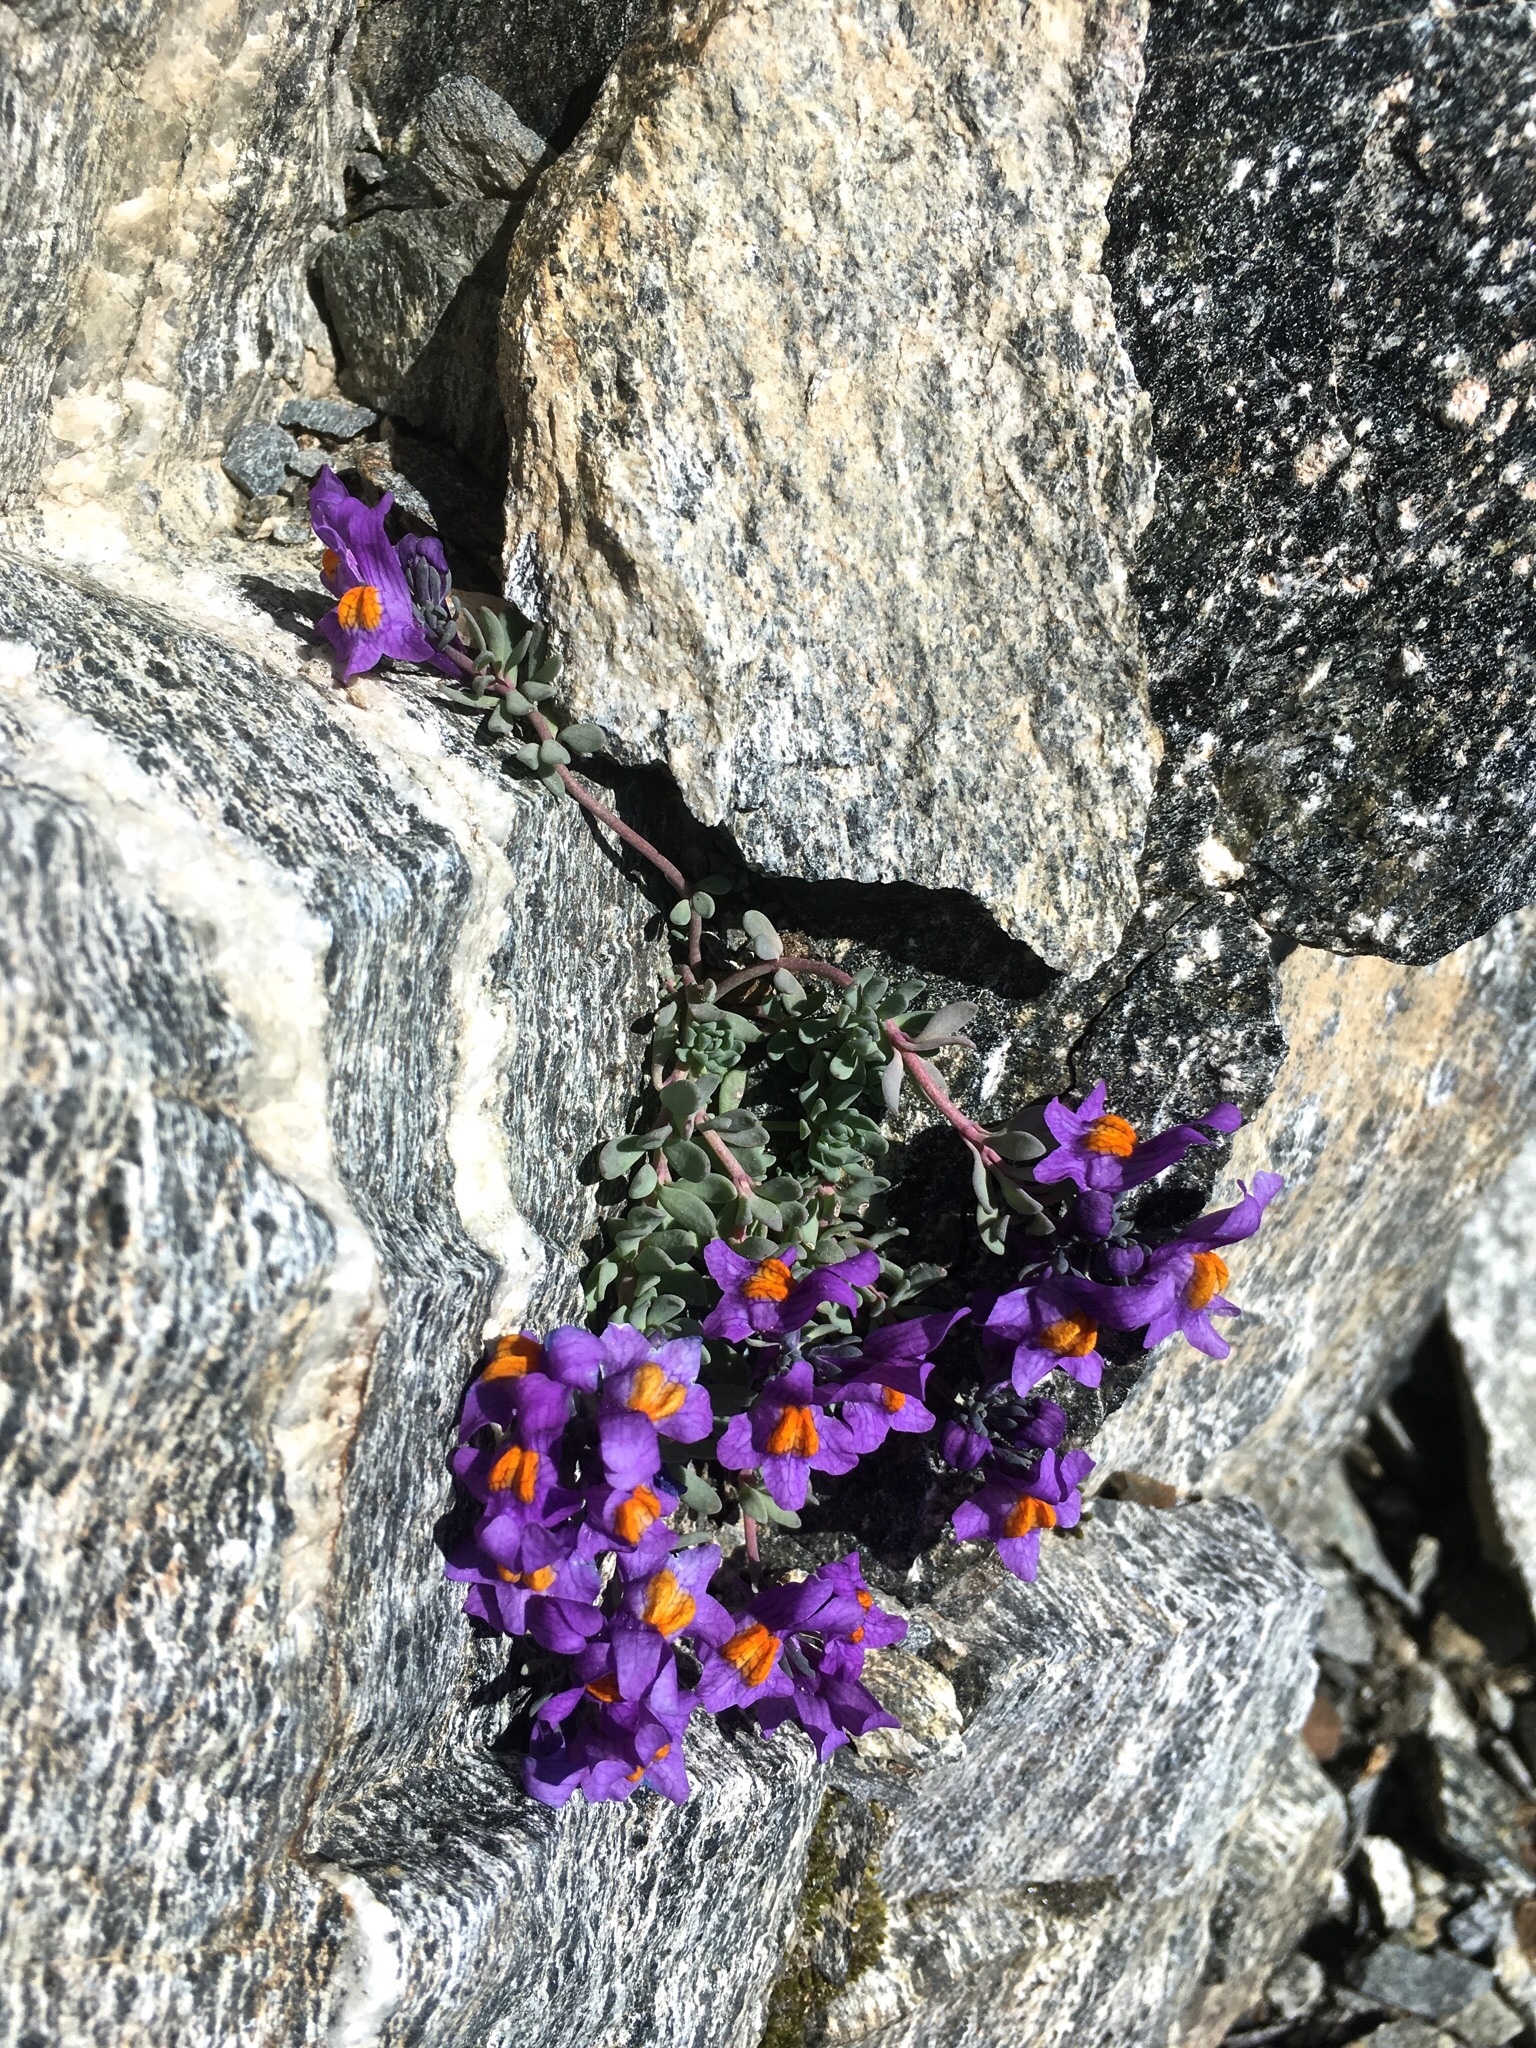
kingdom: Plantae
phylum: Tracheophyta
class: Magnoliopsida
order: Lamiales
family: Plantaginaceae
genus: Linaria
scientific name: Linaria alpina
